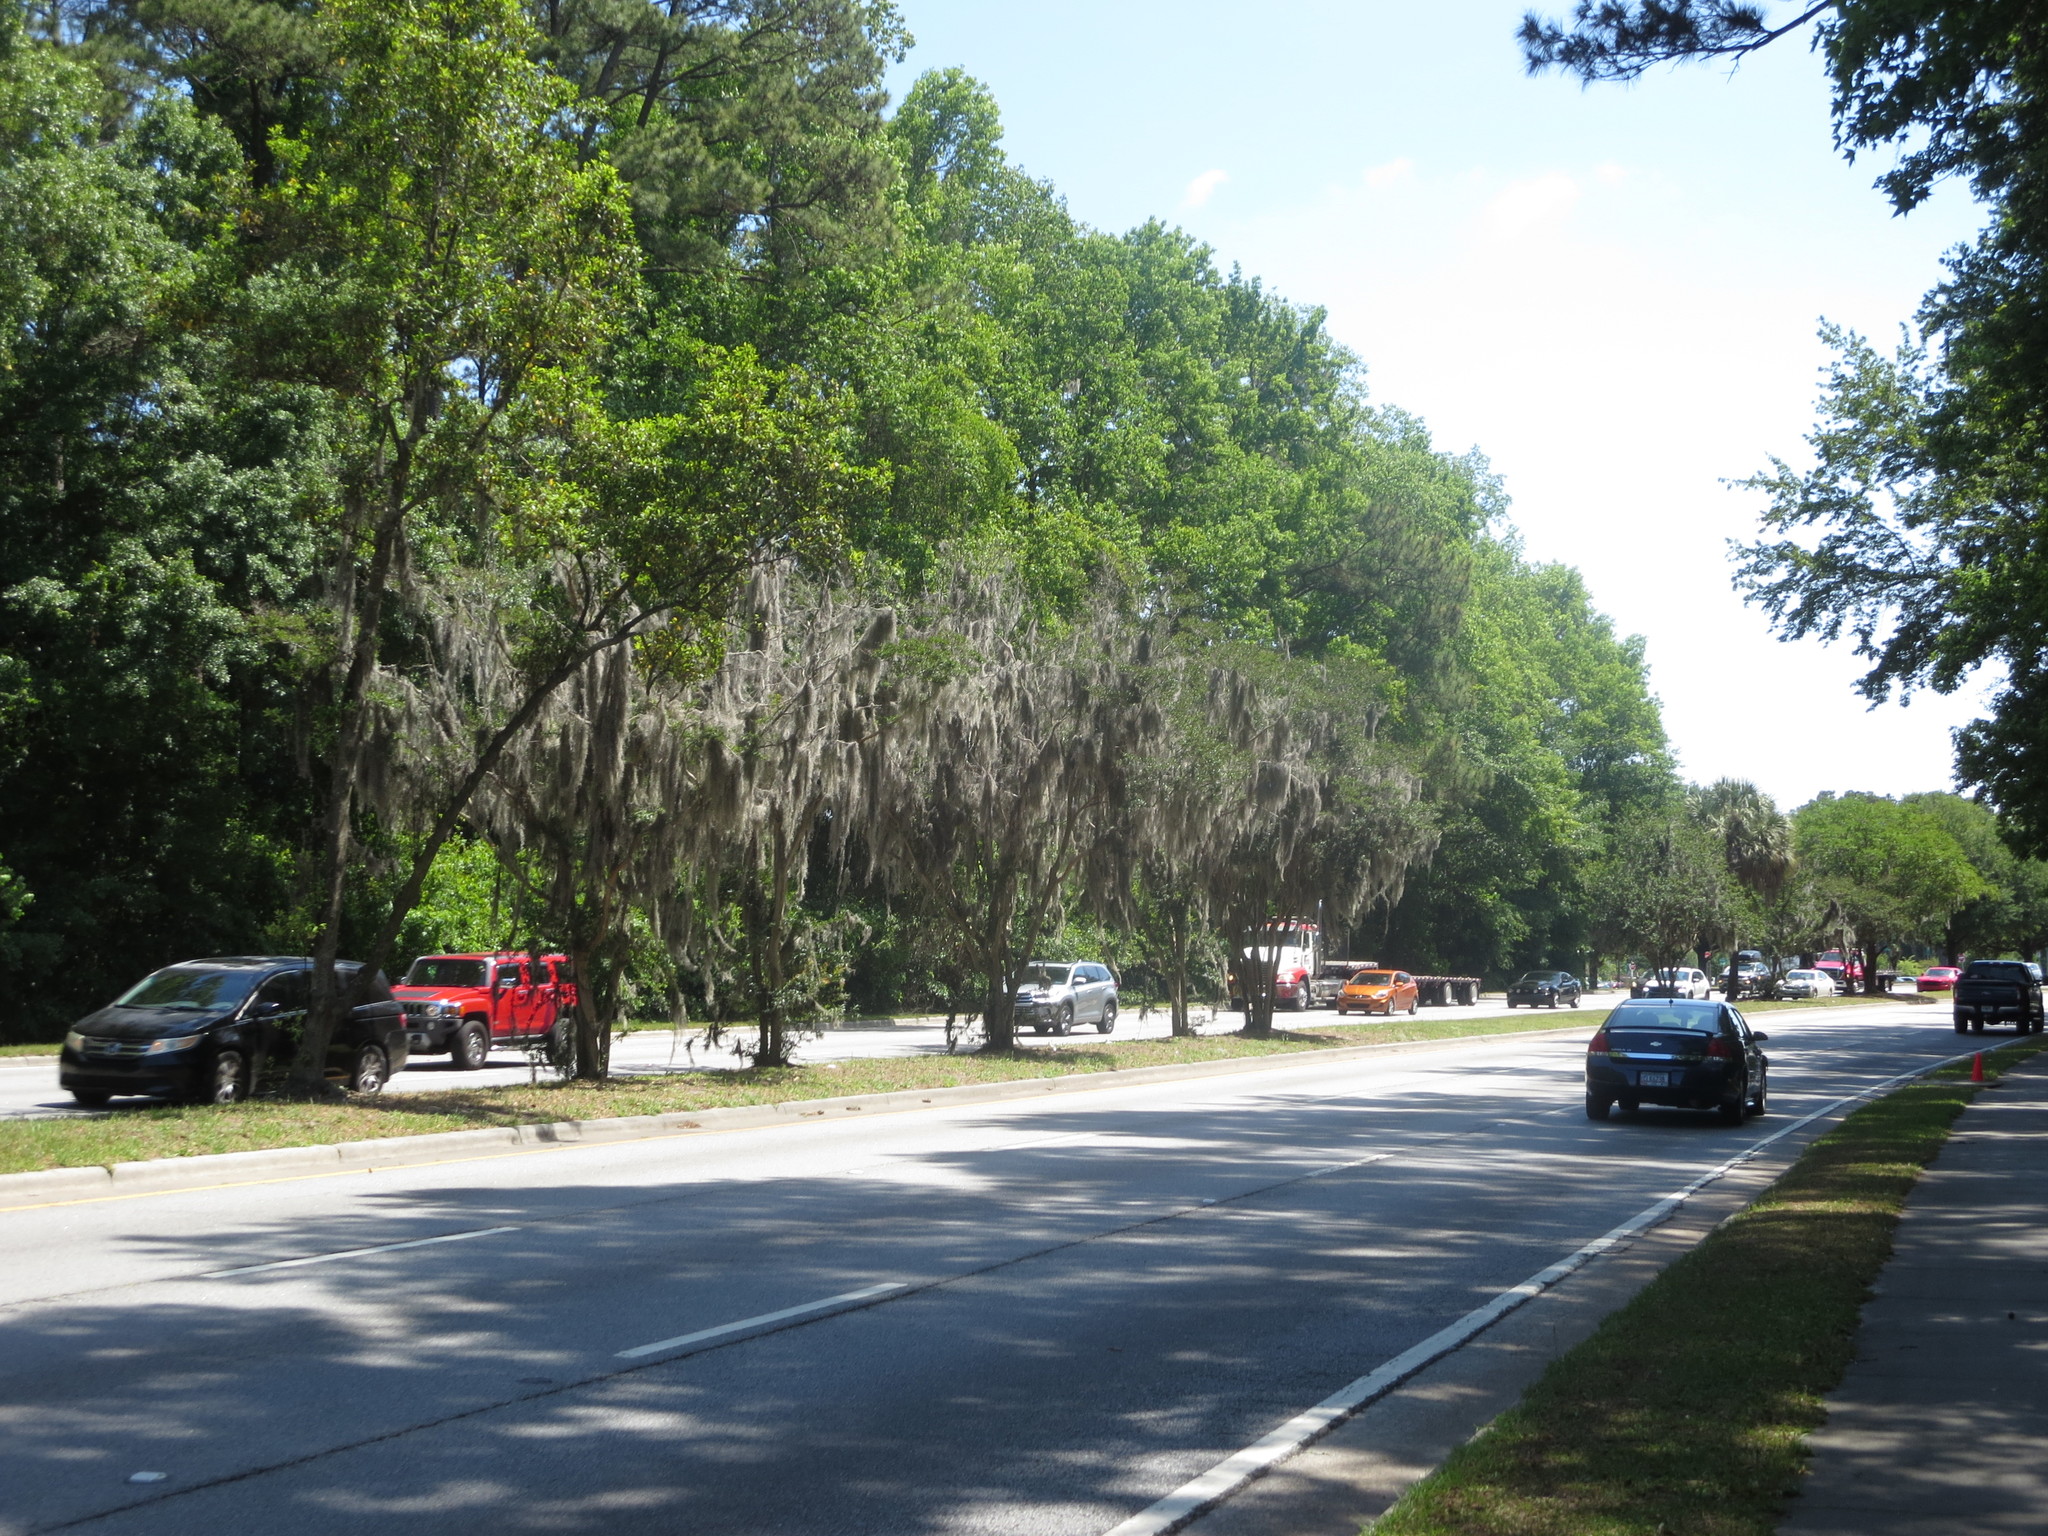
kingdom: Plantae
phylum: Tracheophyta
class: Liliopsida
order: Poales
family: Bromeliaceae
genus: Tillandsia
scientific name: Tillandsia usneoides
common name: Spanish moss
